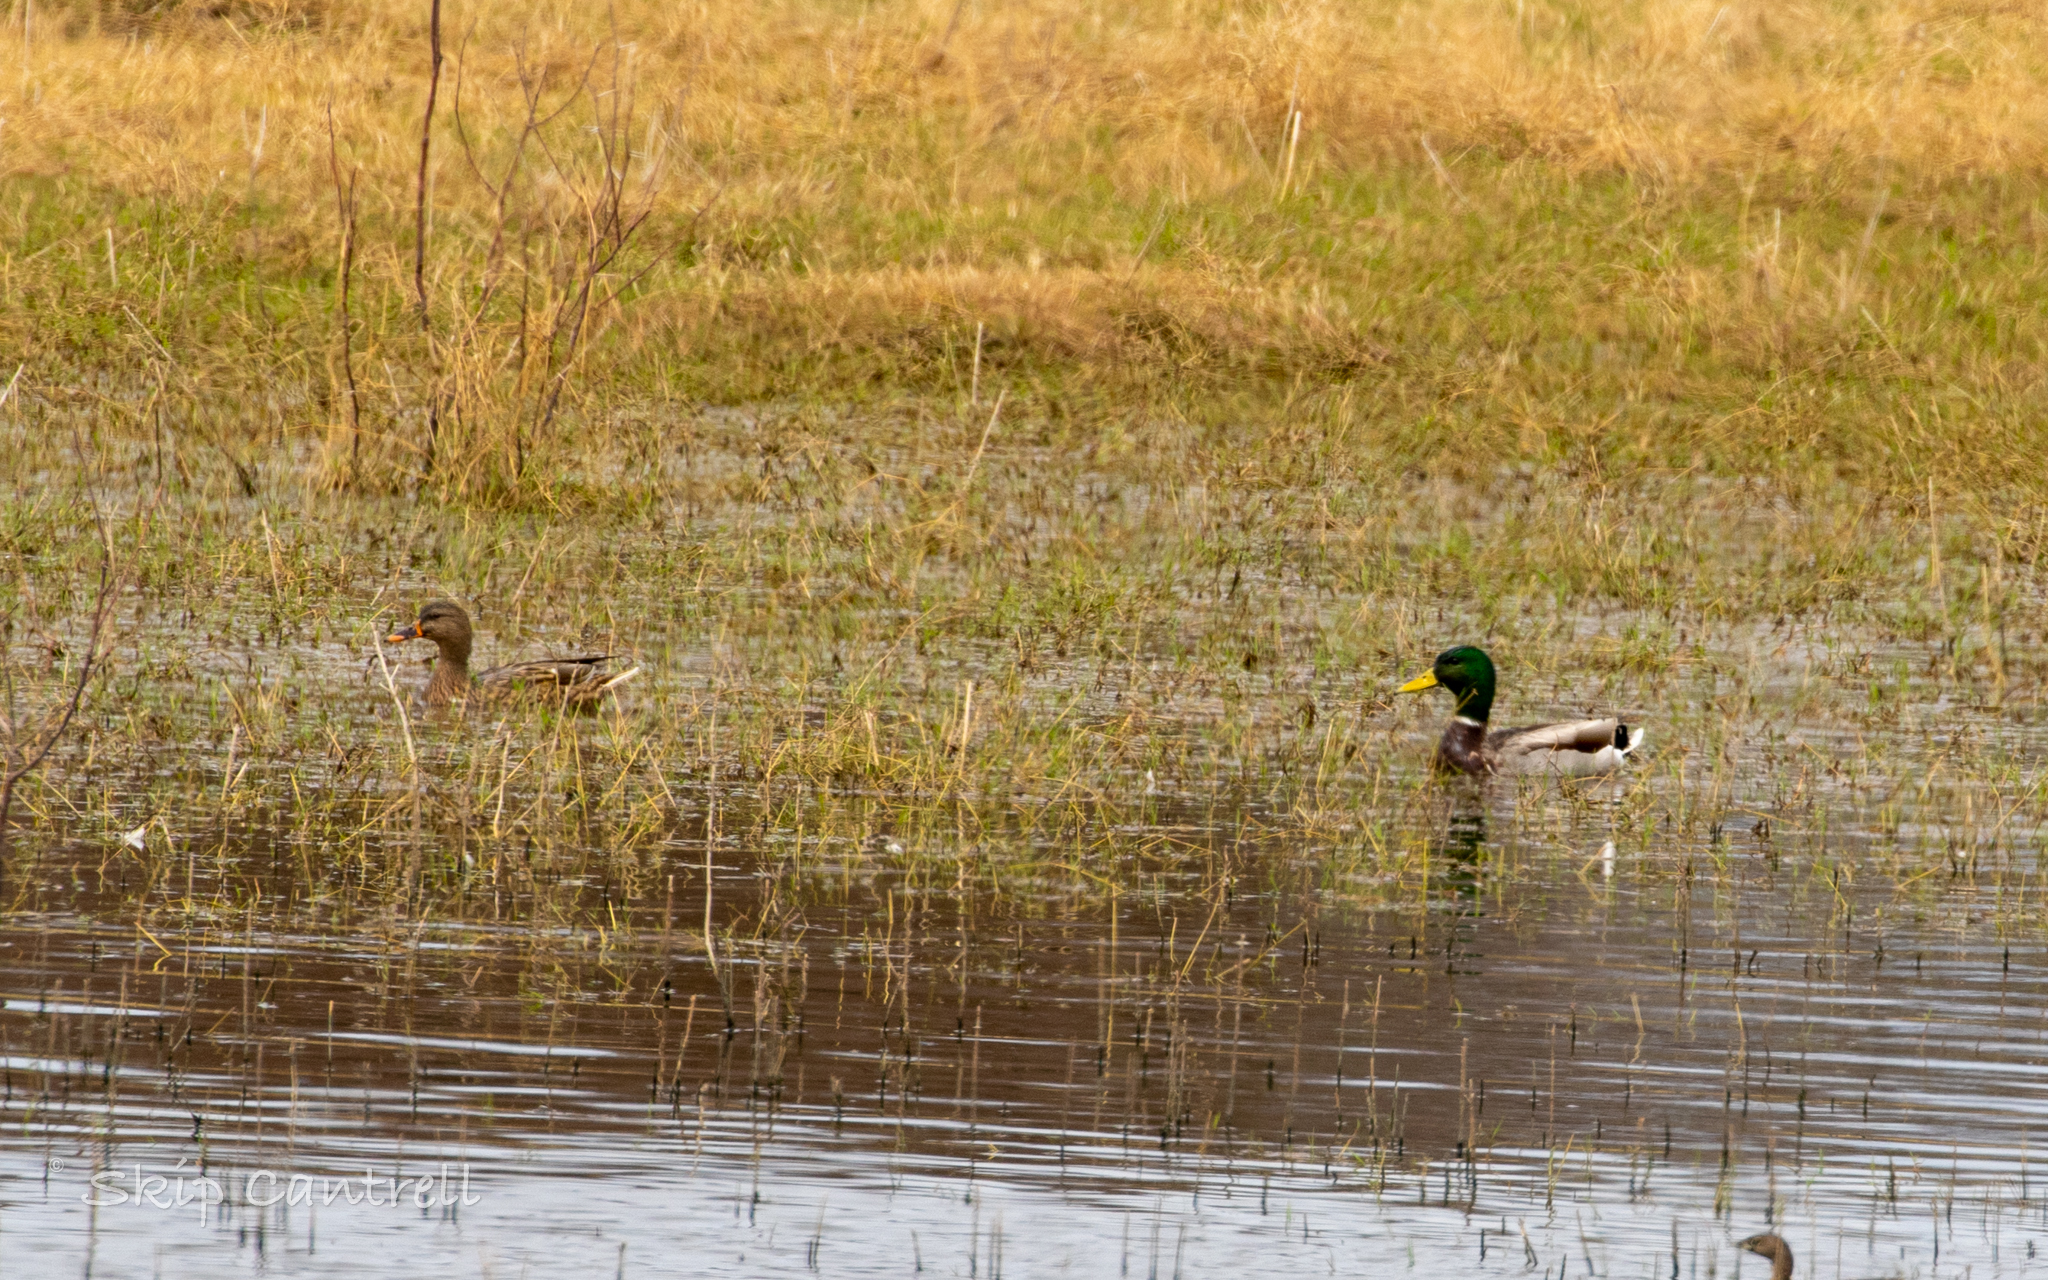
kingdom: Animalia
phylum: Chordata
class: Aves
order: Anseriformes
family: Anatidae
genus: Anas
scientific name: Anas platyrhynchos
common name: Mallard
